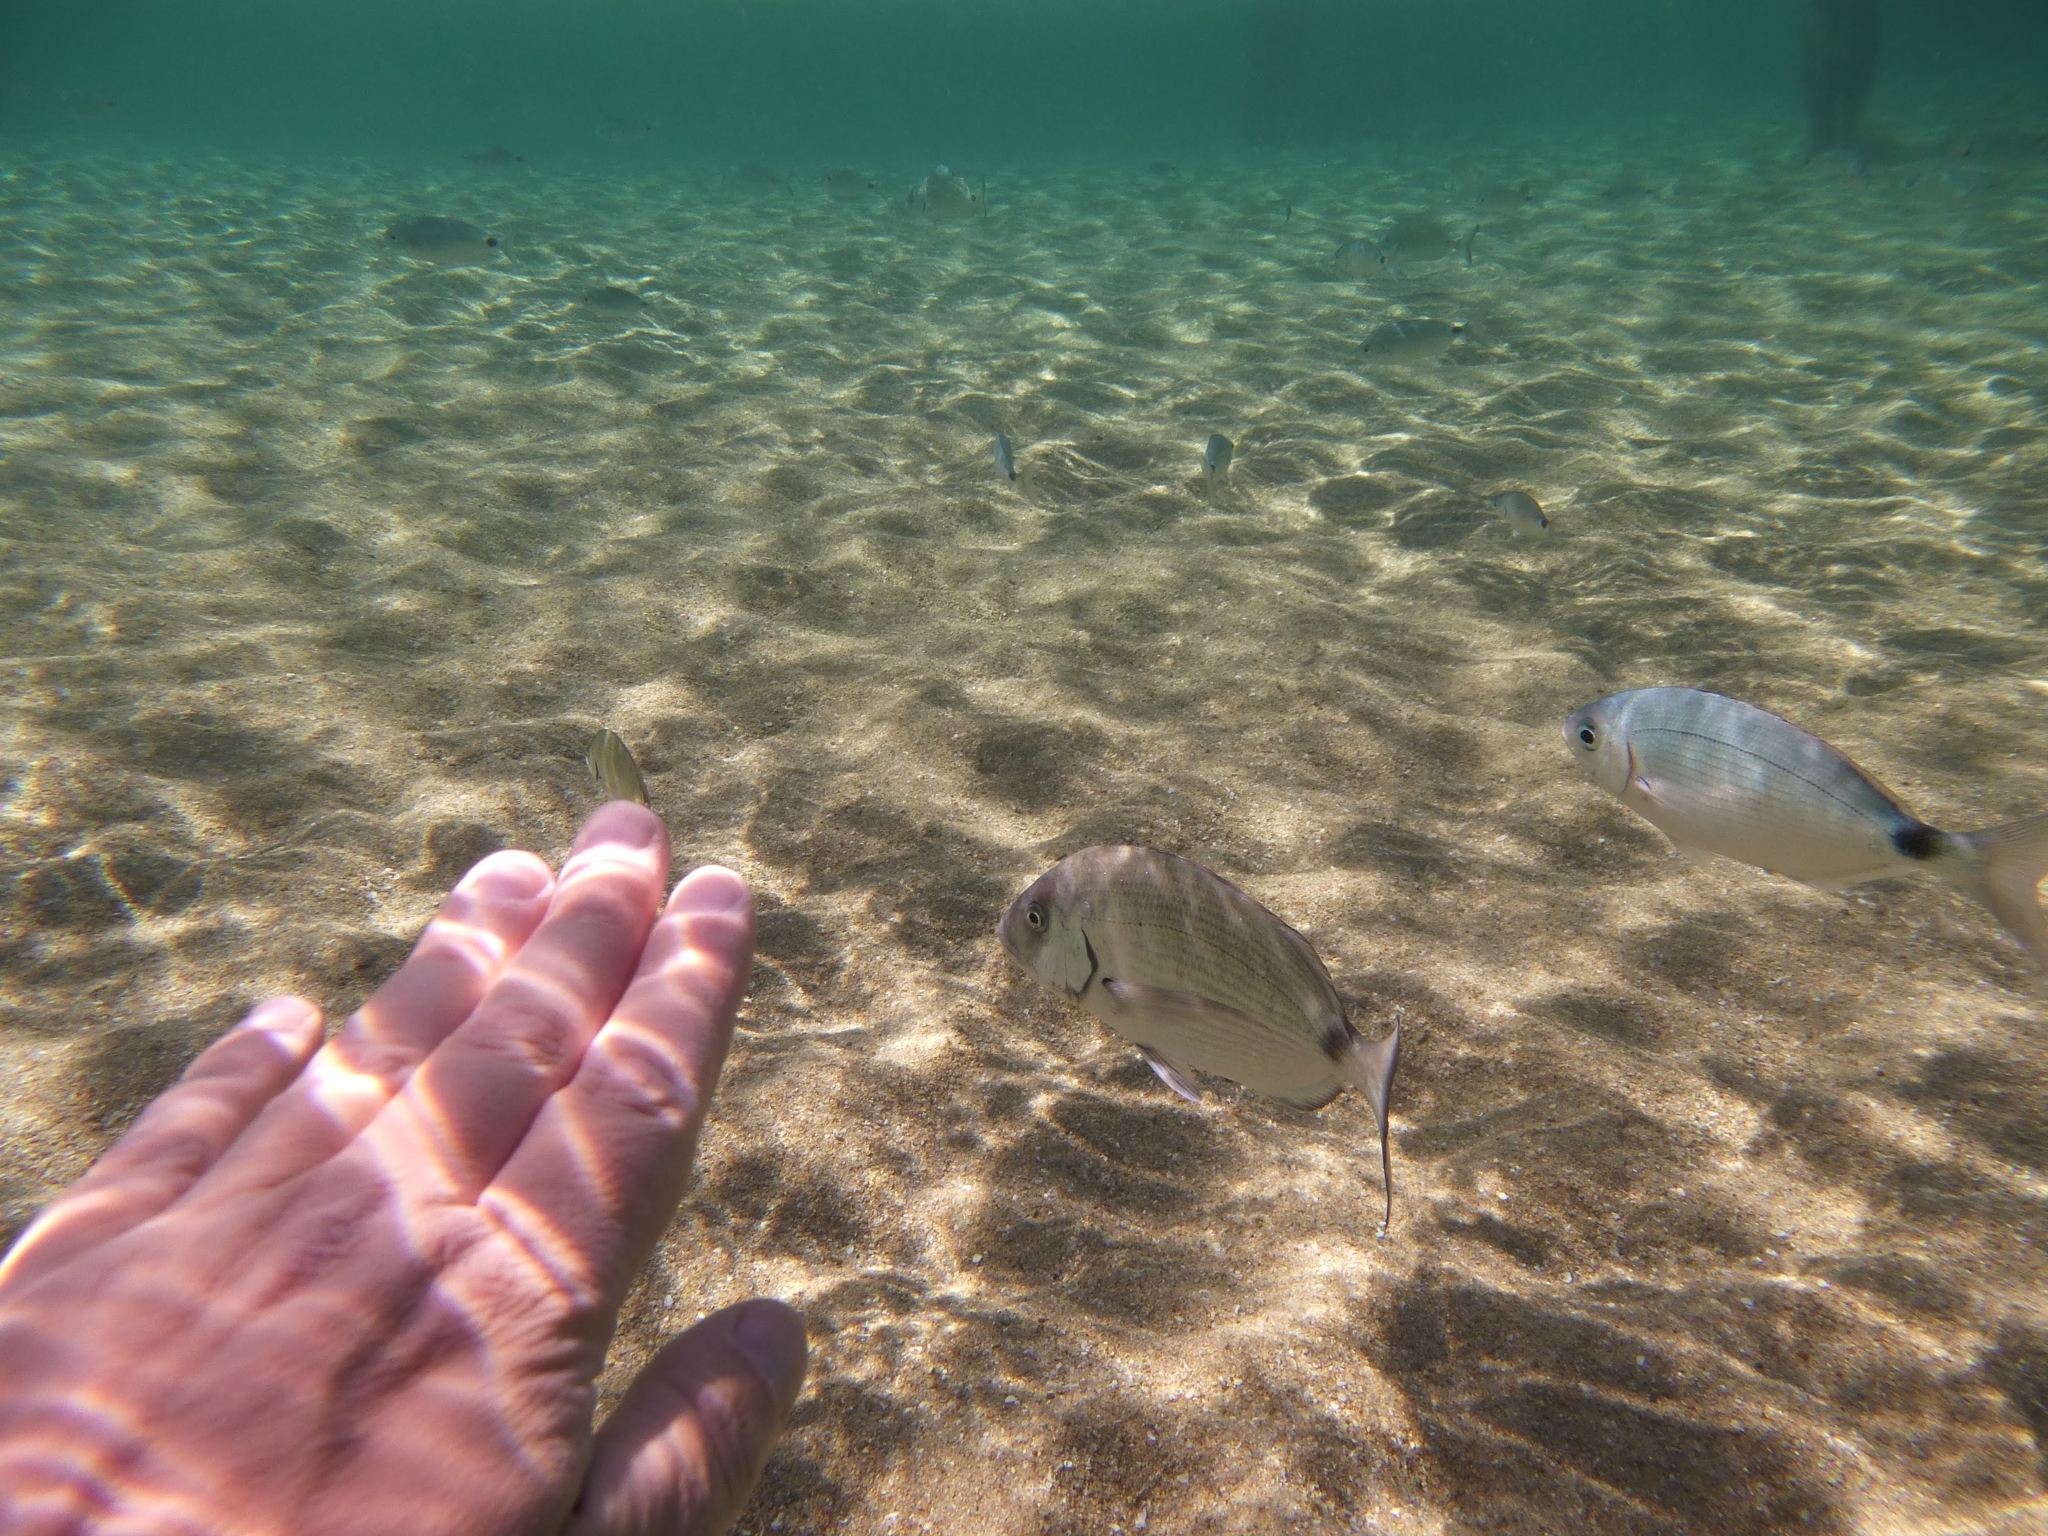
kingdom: Animalia
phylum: Chordata
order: Perciformes
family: Sparidae
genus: Diplodus
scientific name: Diplodus sargus
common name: White seabream
